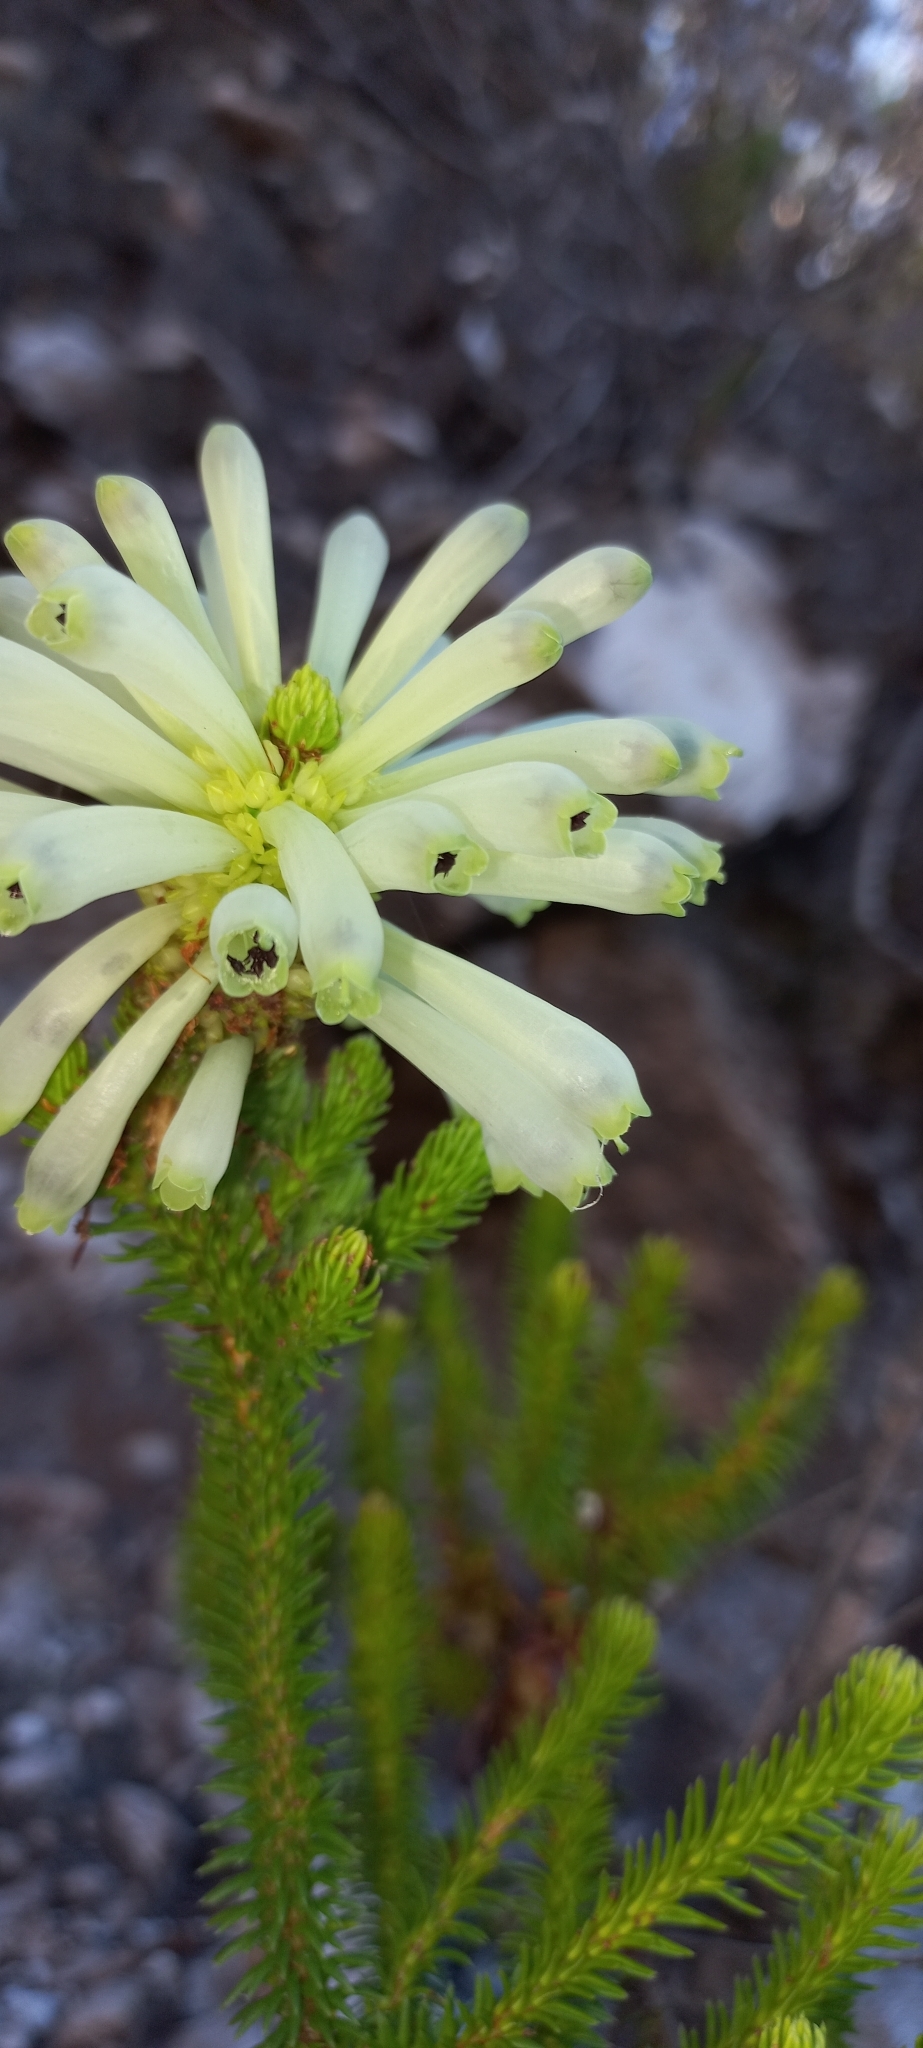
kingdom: Plantae
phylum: Tracheophyta
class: Magnoliopsida
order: Ericales
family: Ericaceae
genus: Erica
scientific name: Erica sessiliflora
